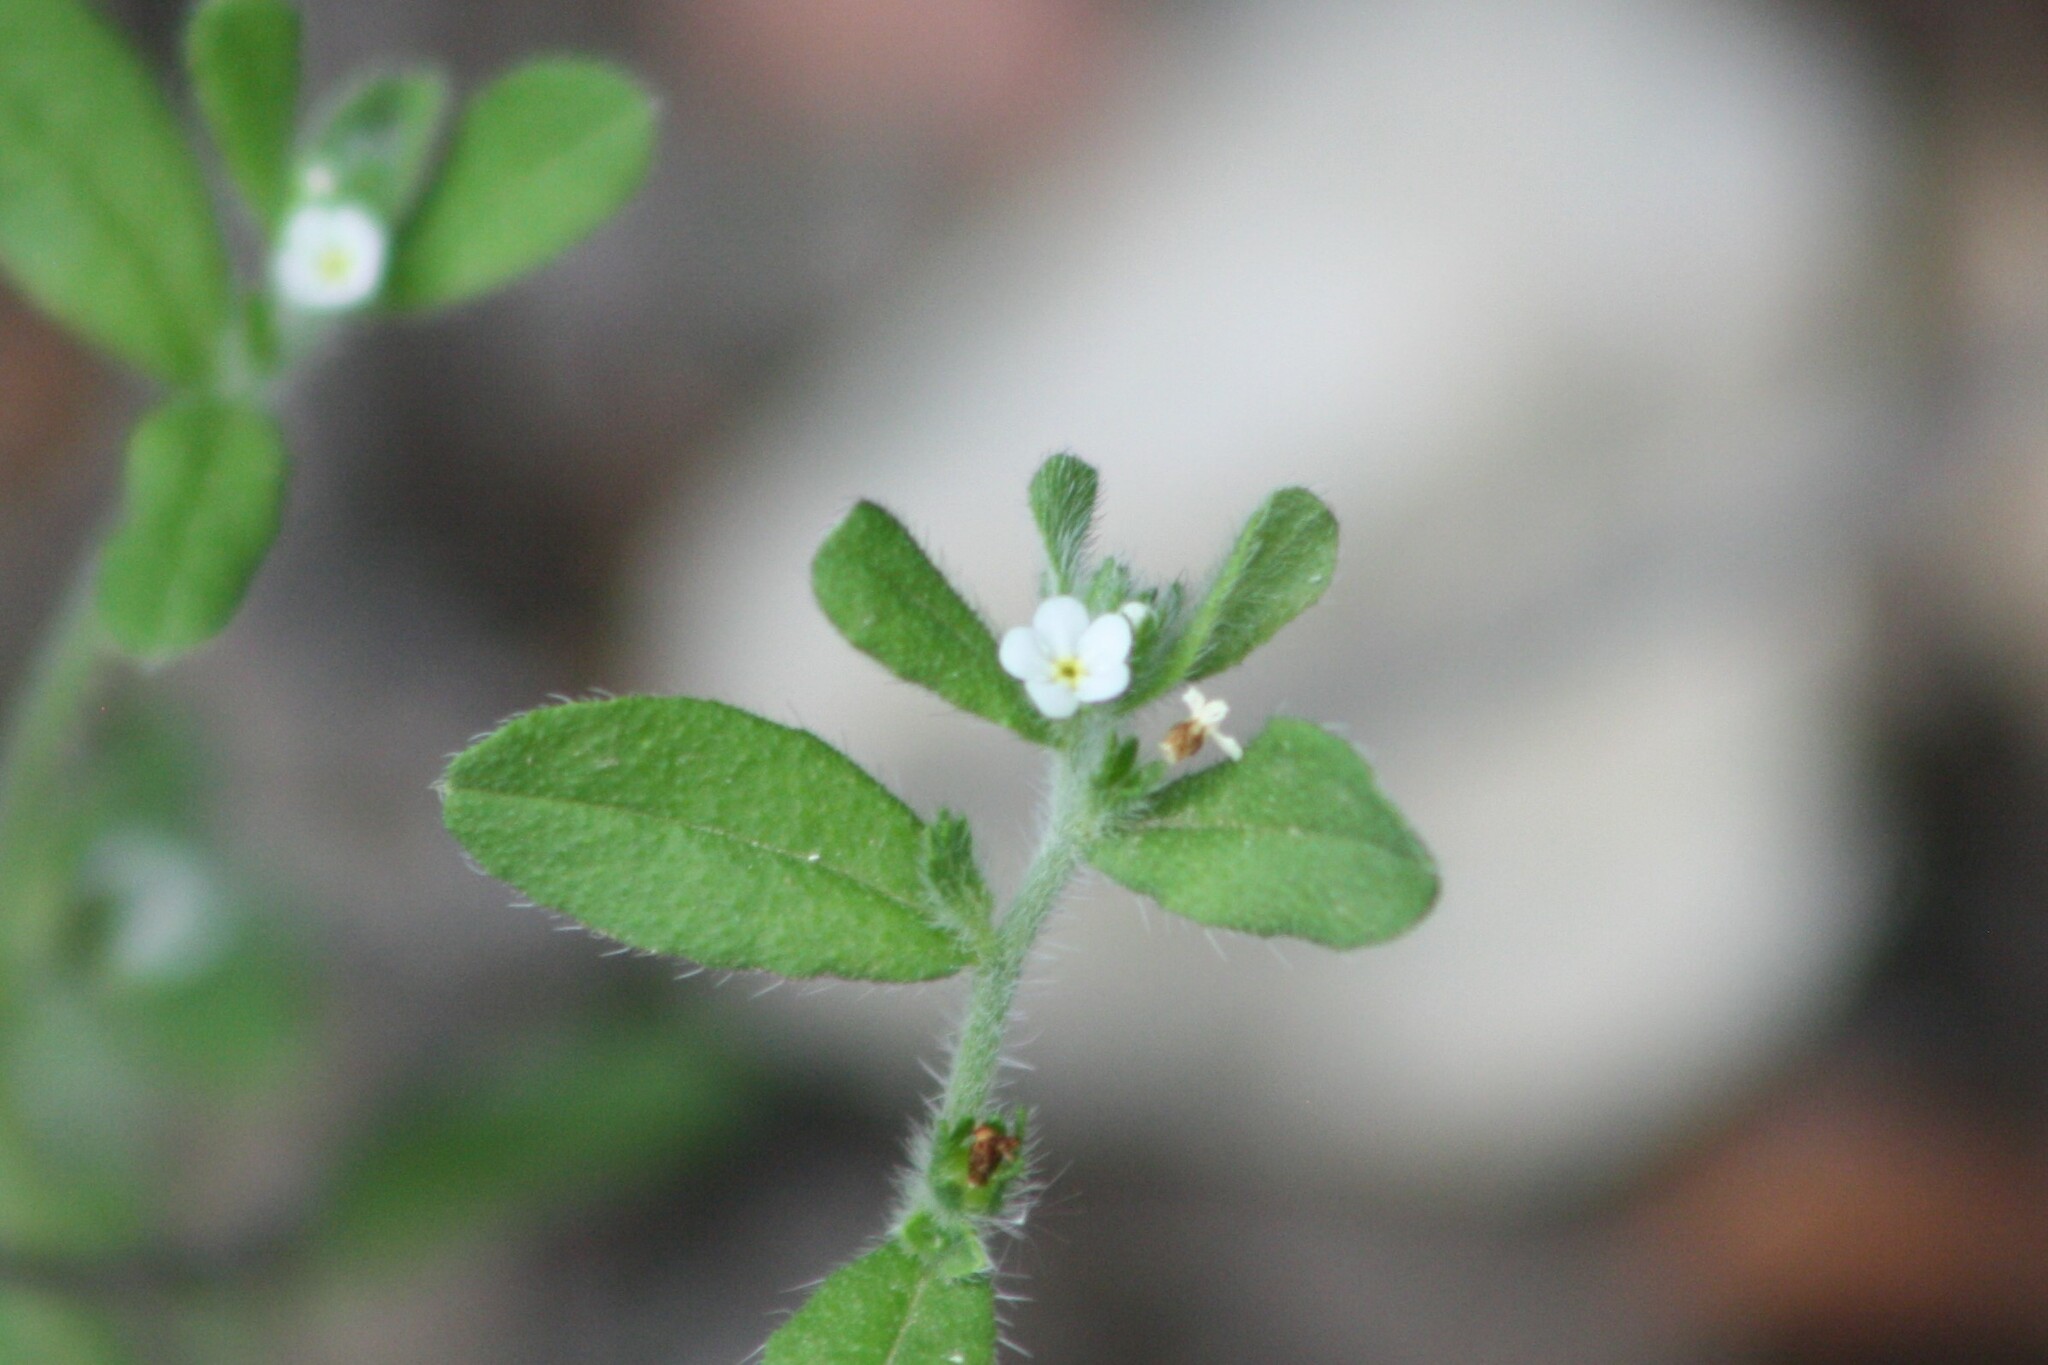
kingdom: Plantae
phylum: Tracheophyta
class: Magnoliopsida
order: Boraginales
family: Boraginaceae
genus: Lithospermum
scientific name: Lithospermum matamorense
